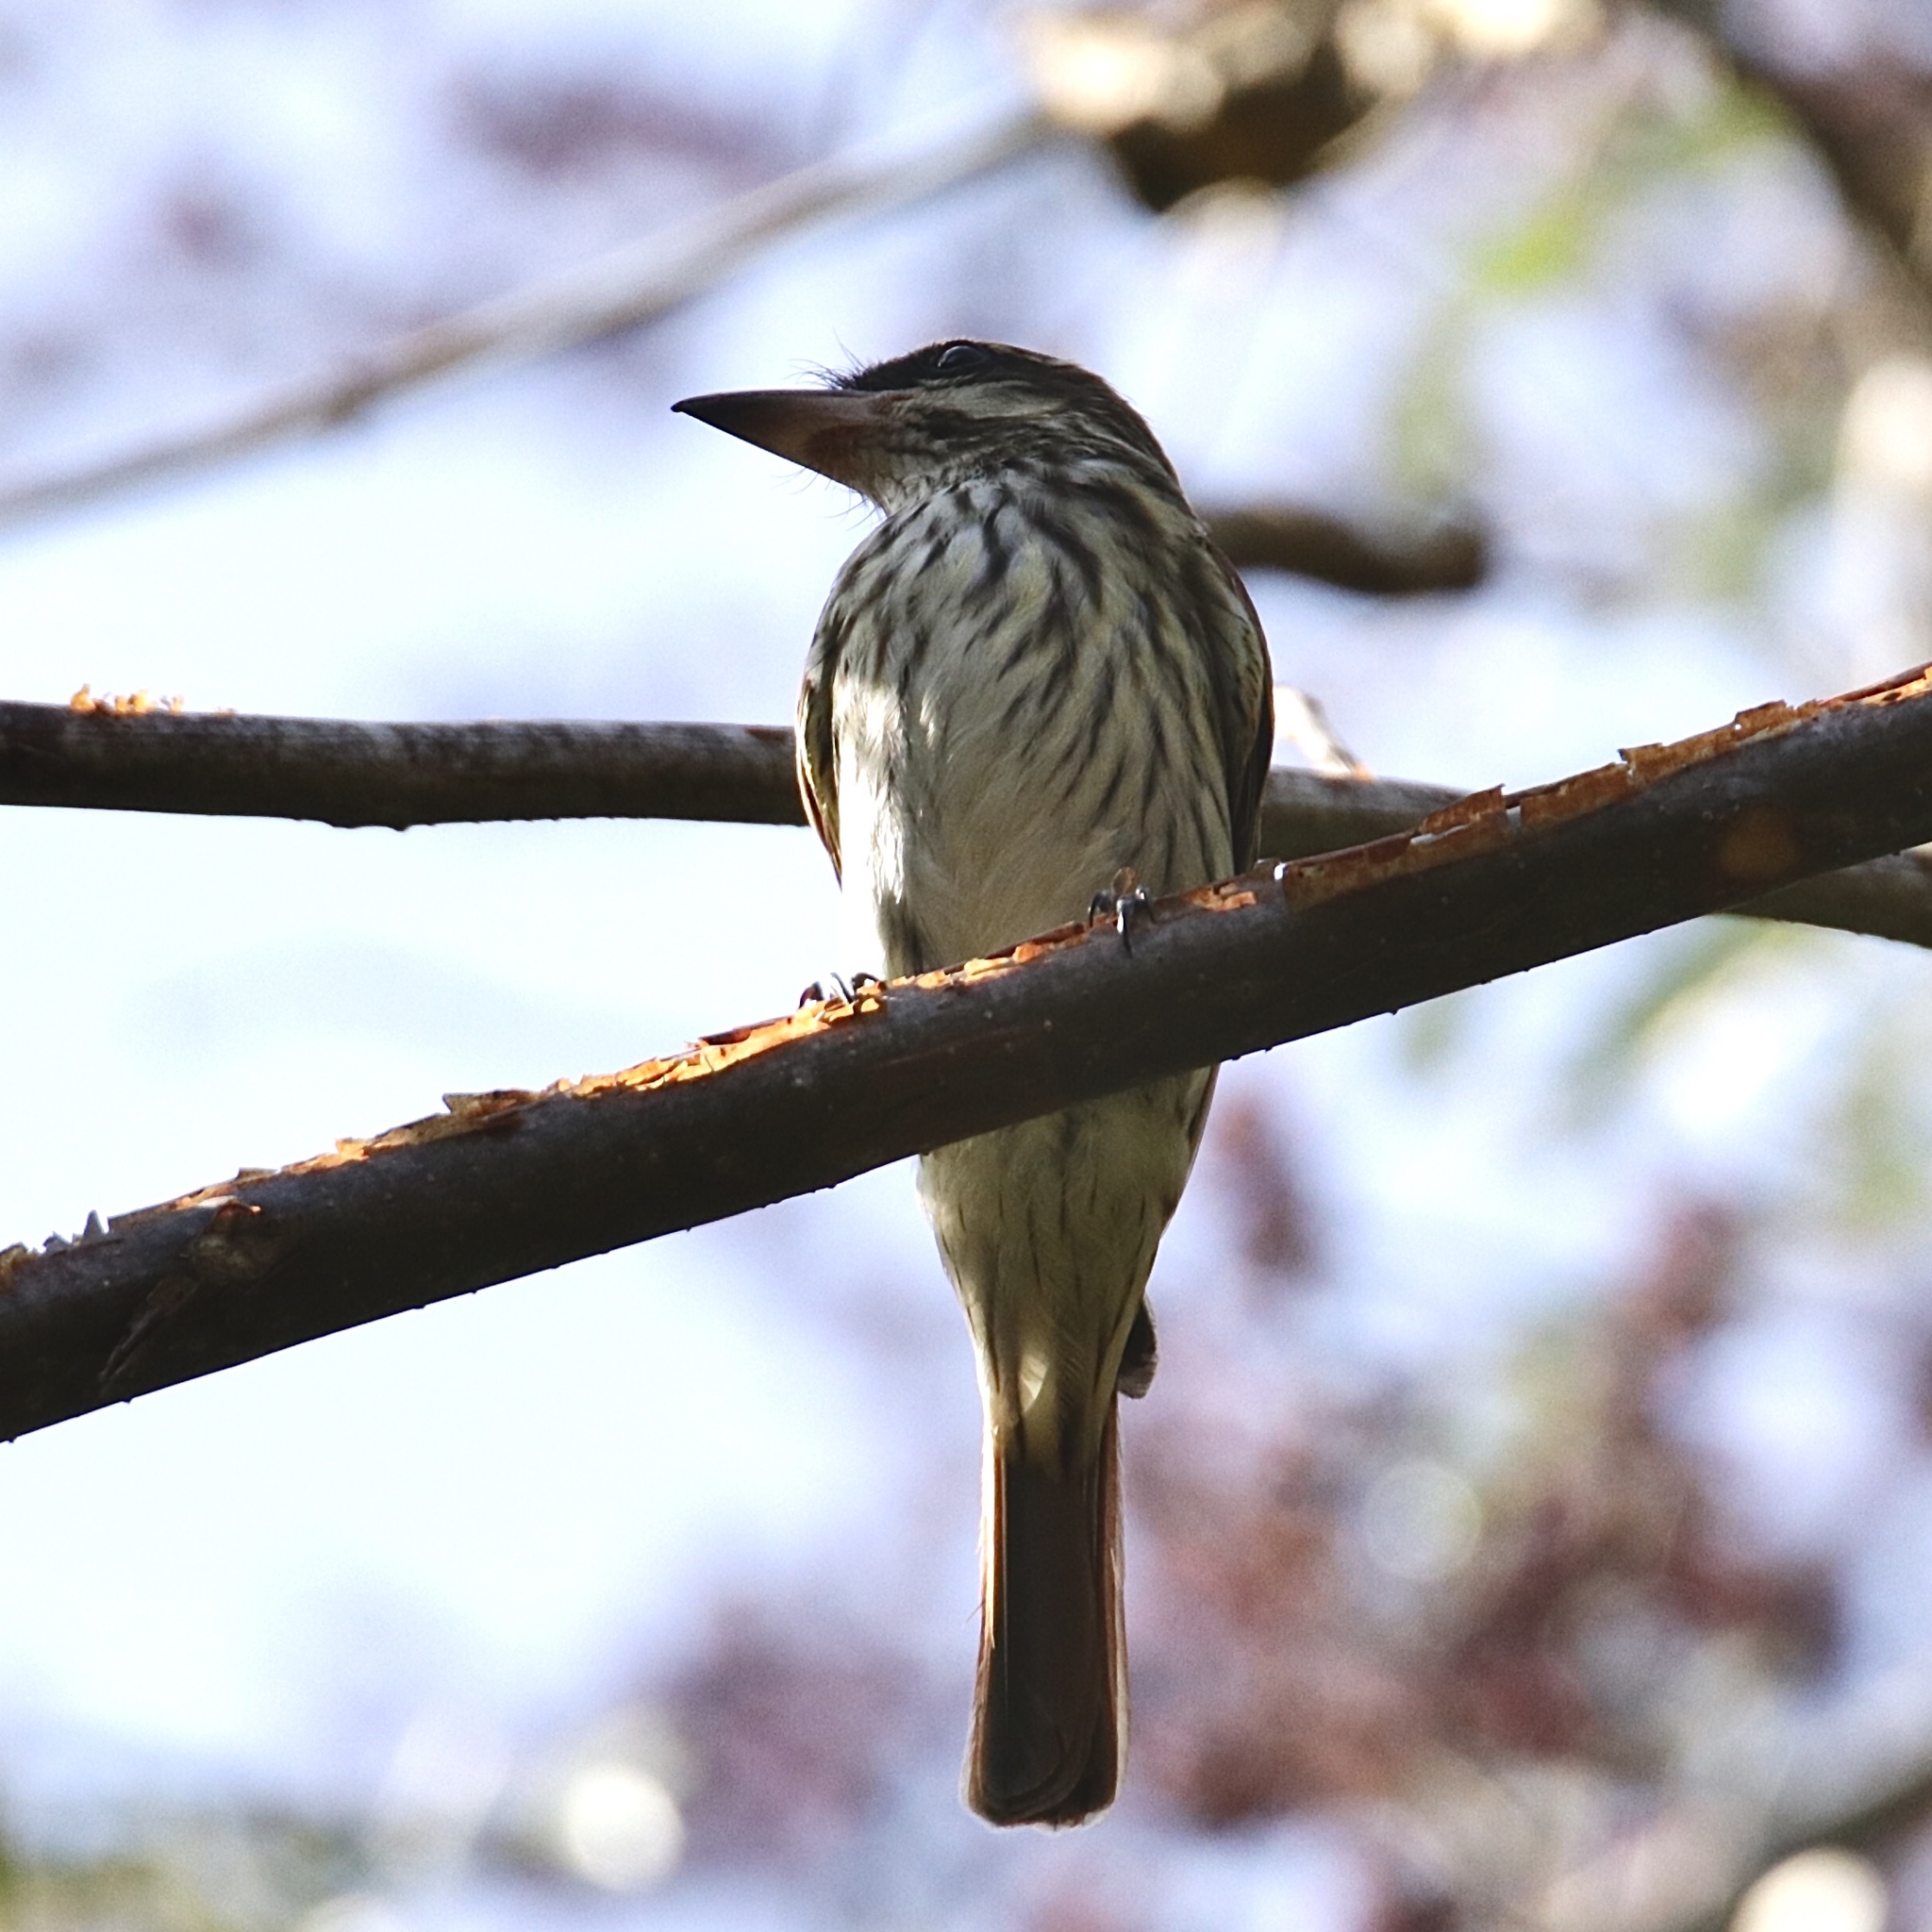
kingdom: Animalia
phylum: Chordata
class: Aves
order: Passeriformes
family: Tyrannidae
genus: Myiodynastes
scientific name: Myiodynastes maculatus
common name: Streaked flycatcher
